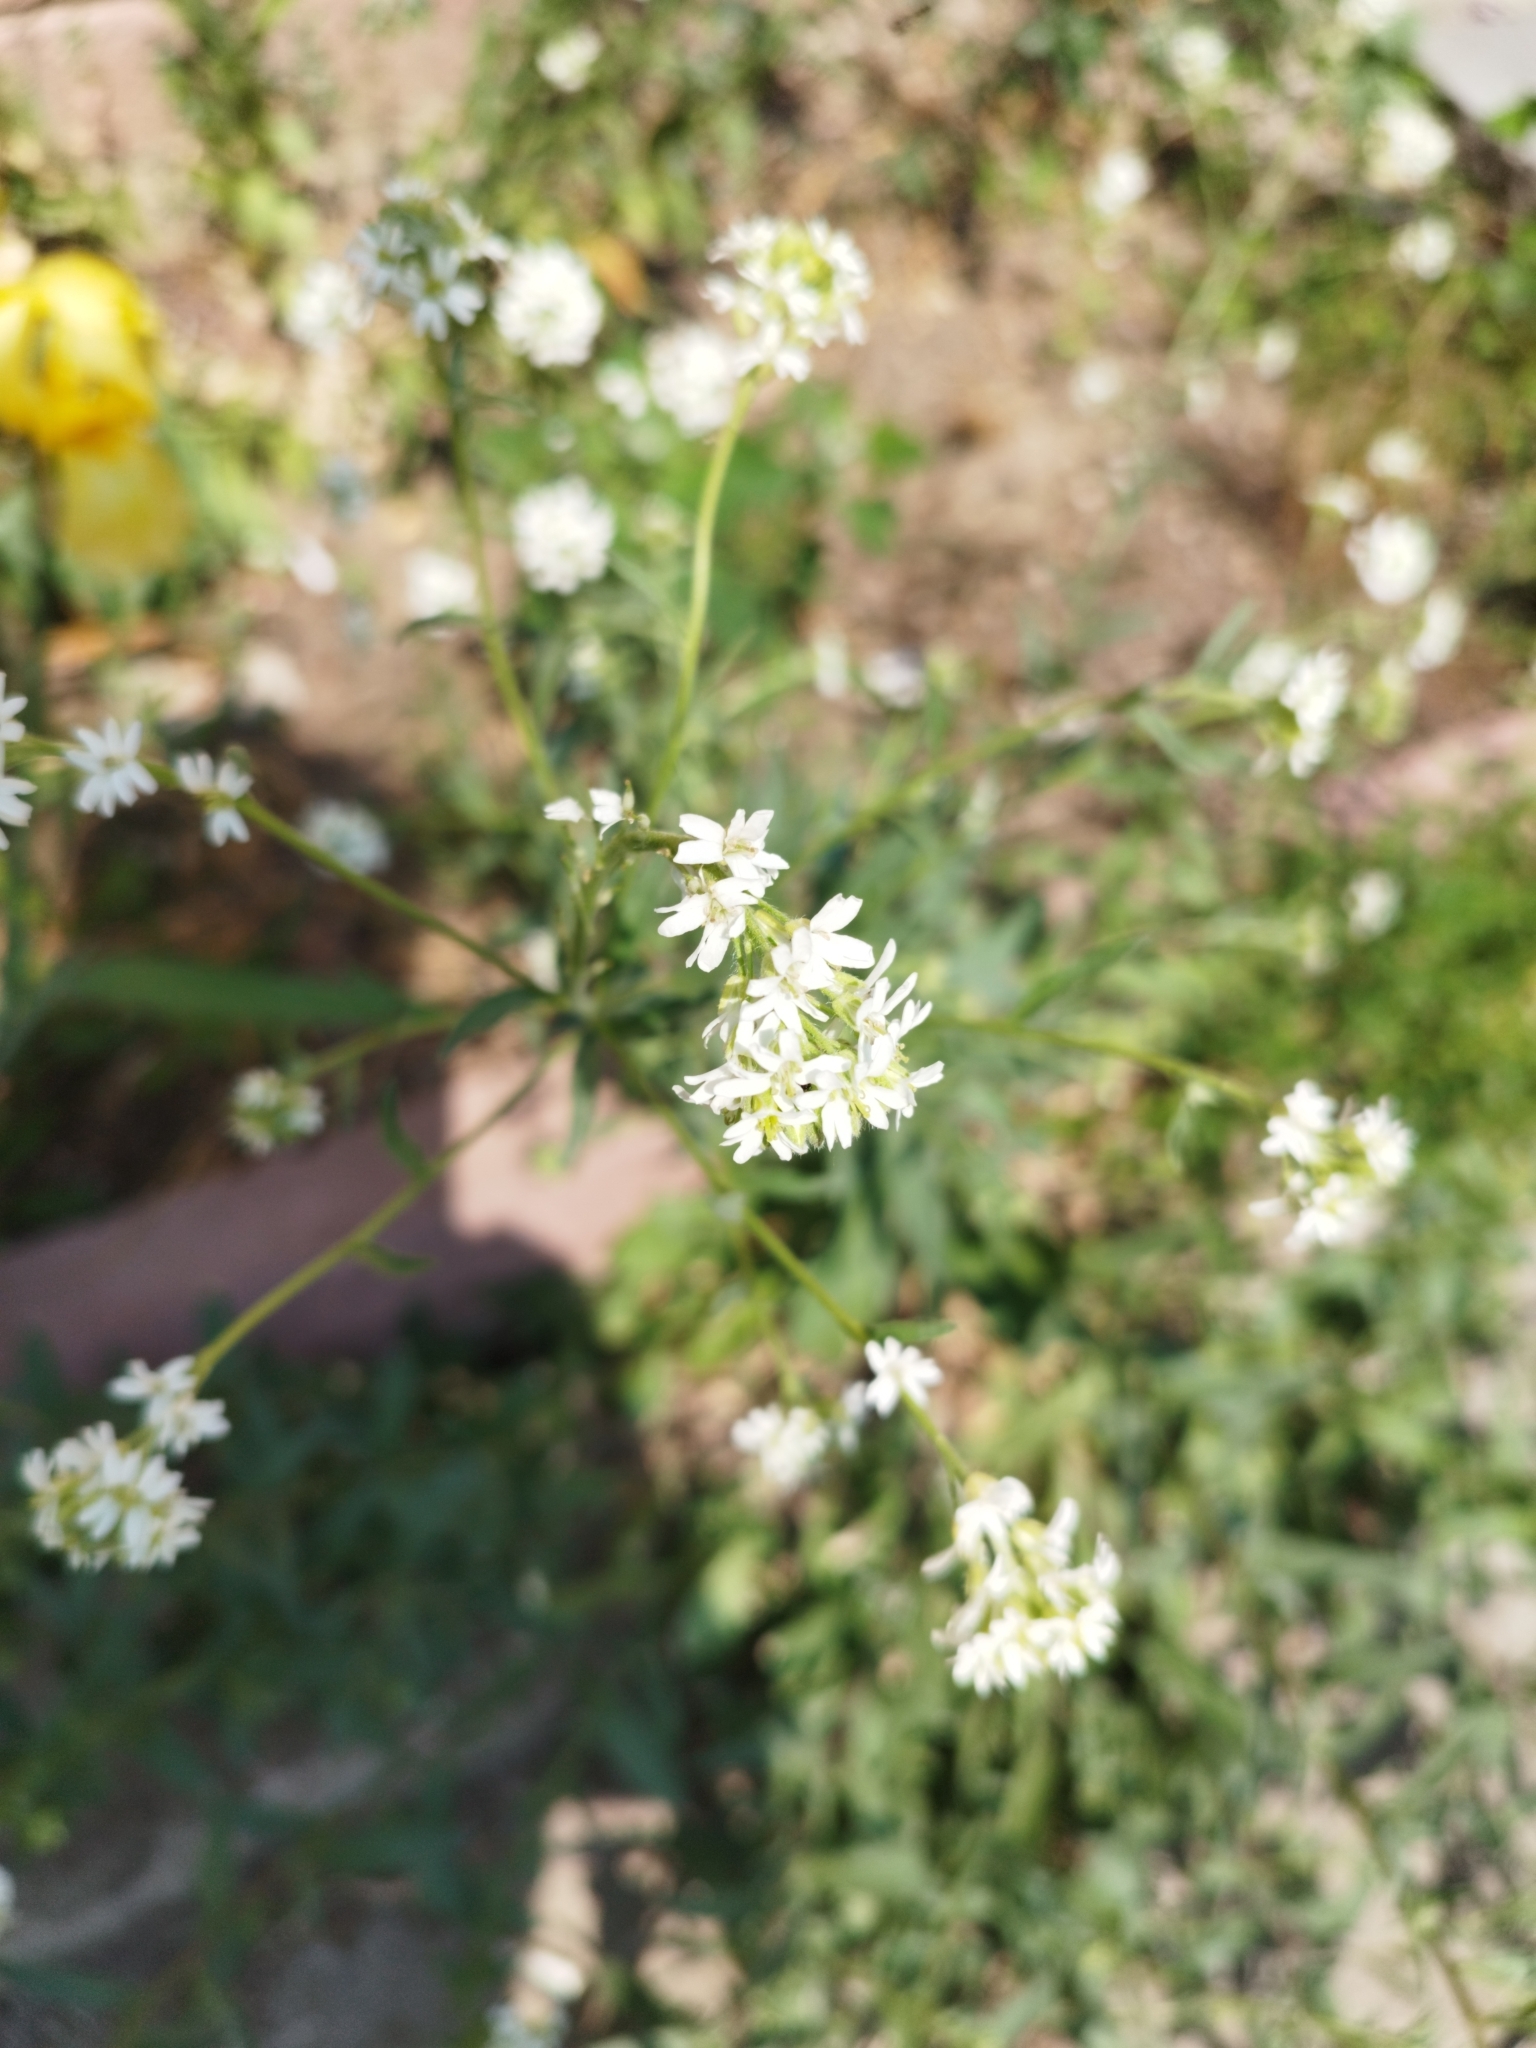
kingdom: Plantae
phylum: Tracheophyta
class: Magnoliopsida
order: Brassicales
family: Brassicaceae
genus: Berteroa
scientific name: Berteroa incana
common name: Hoary alison
